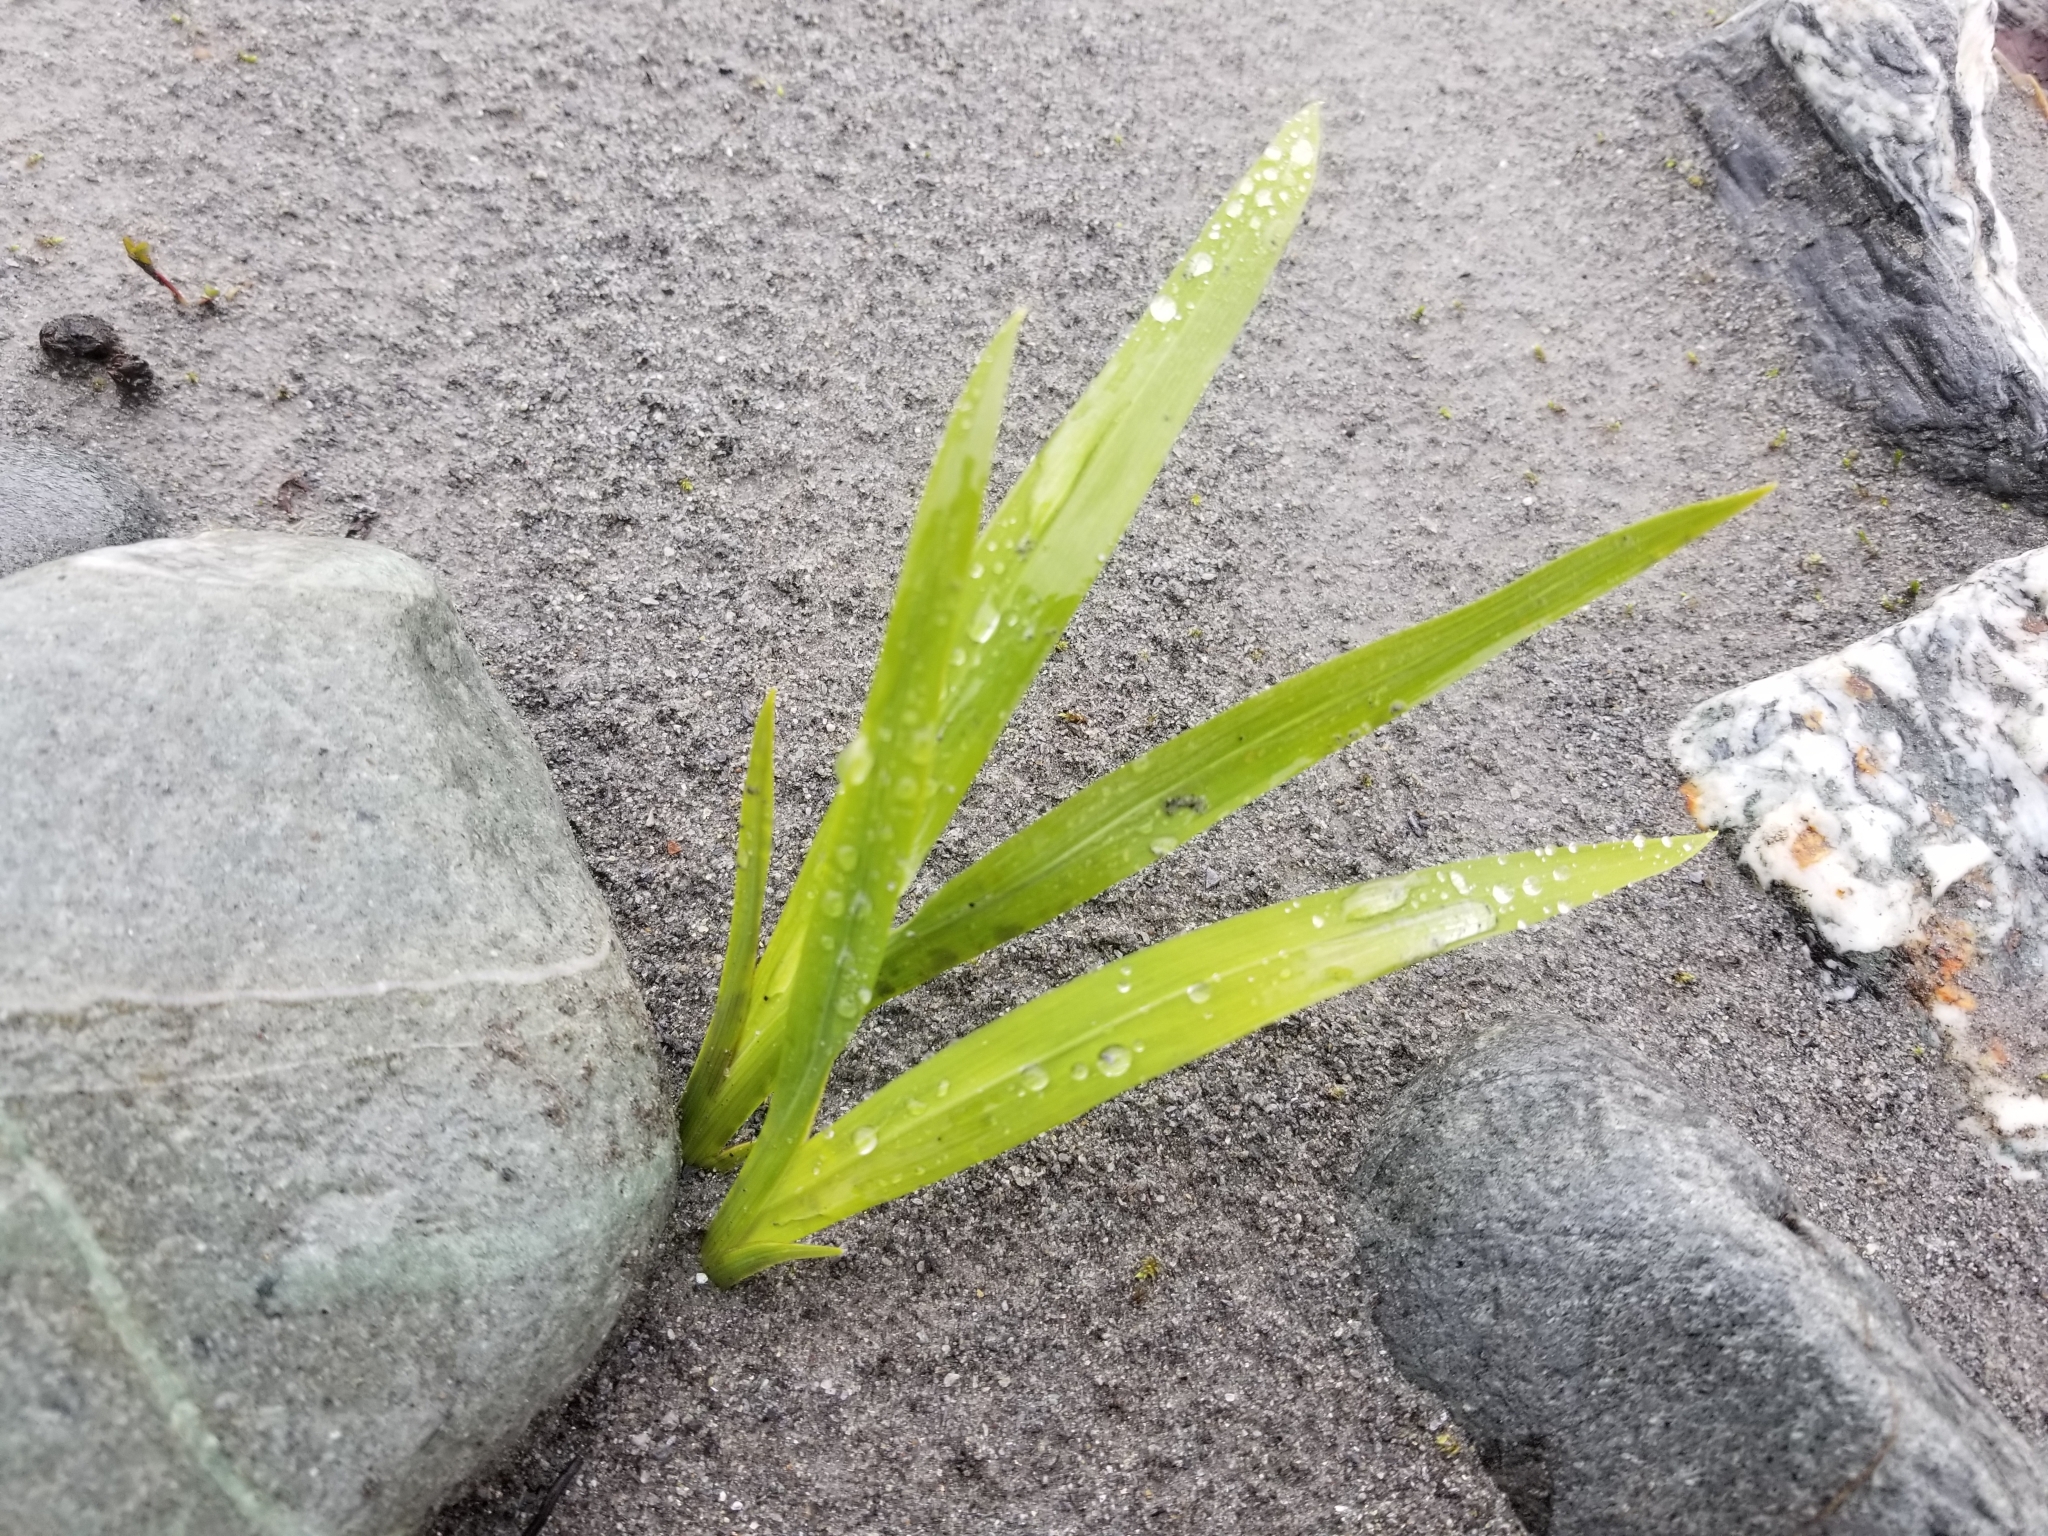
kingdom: Plantae
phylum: Tracheophyta
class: Liliopsida
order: Asparagales
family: Iridaceae
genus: Crocosmia
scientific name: Crocosmia crocosmiiflora
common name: Montbretia
